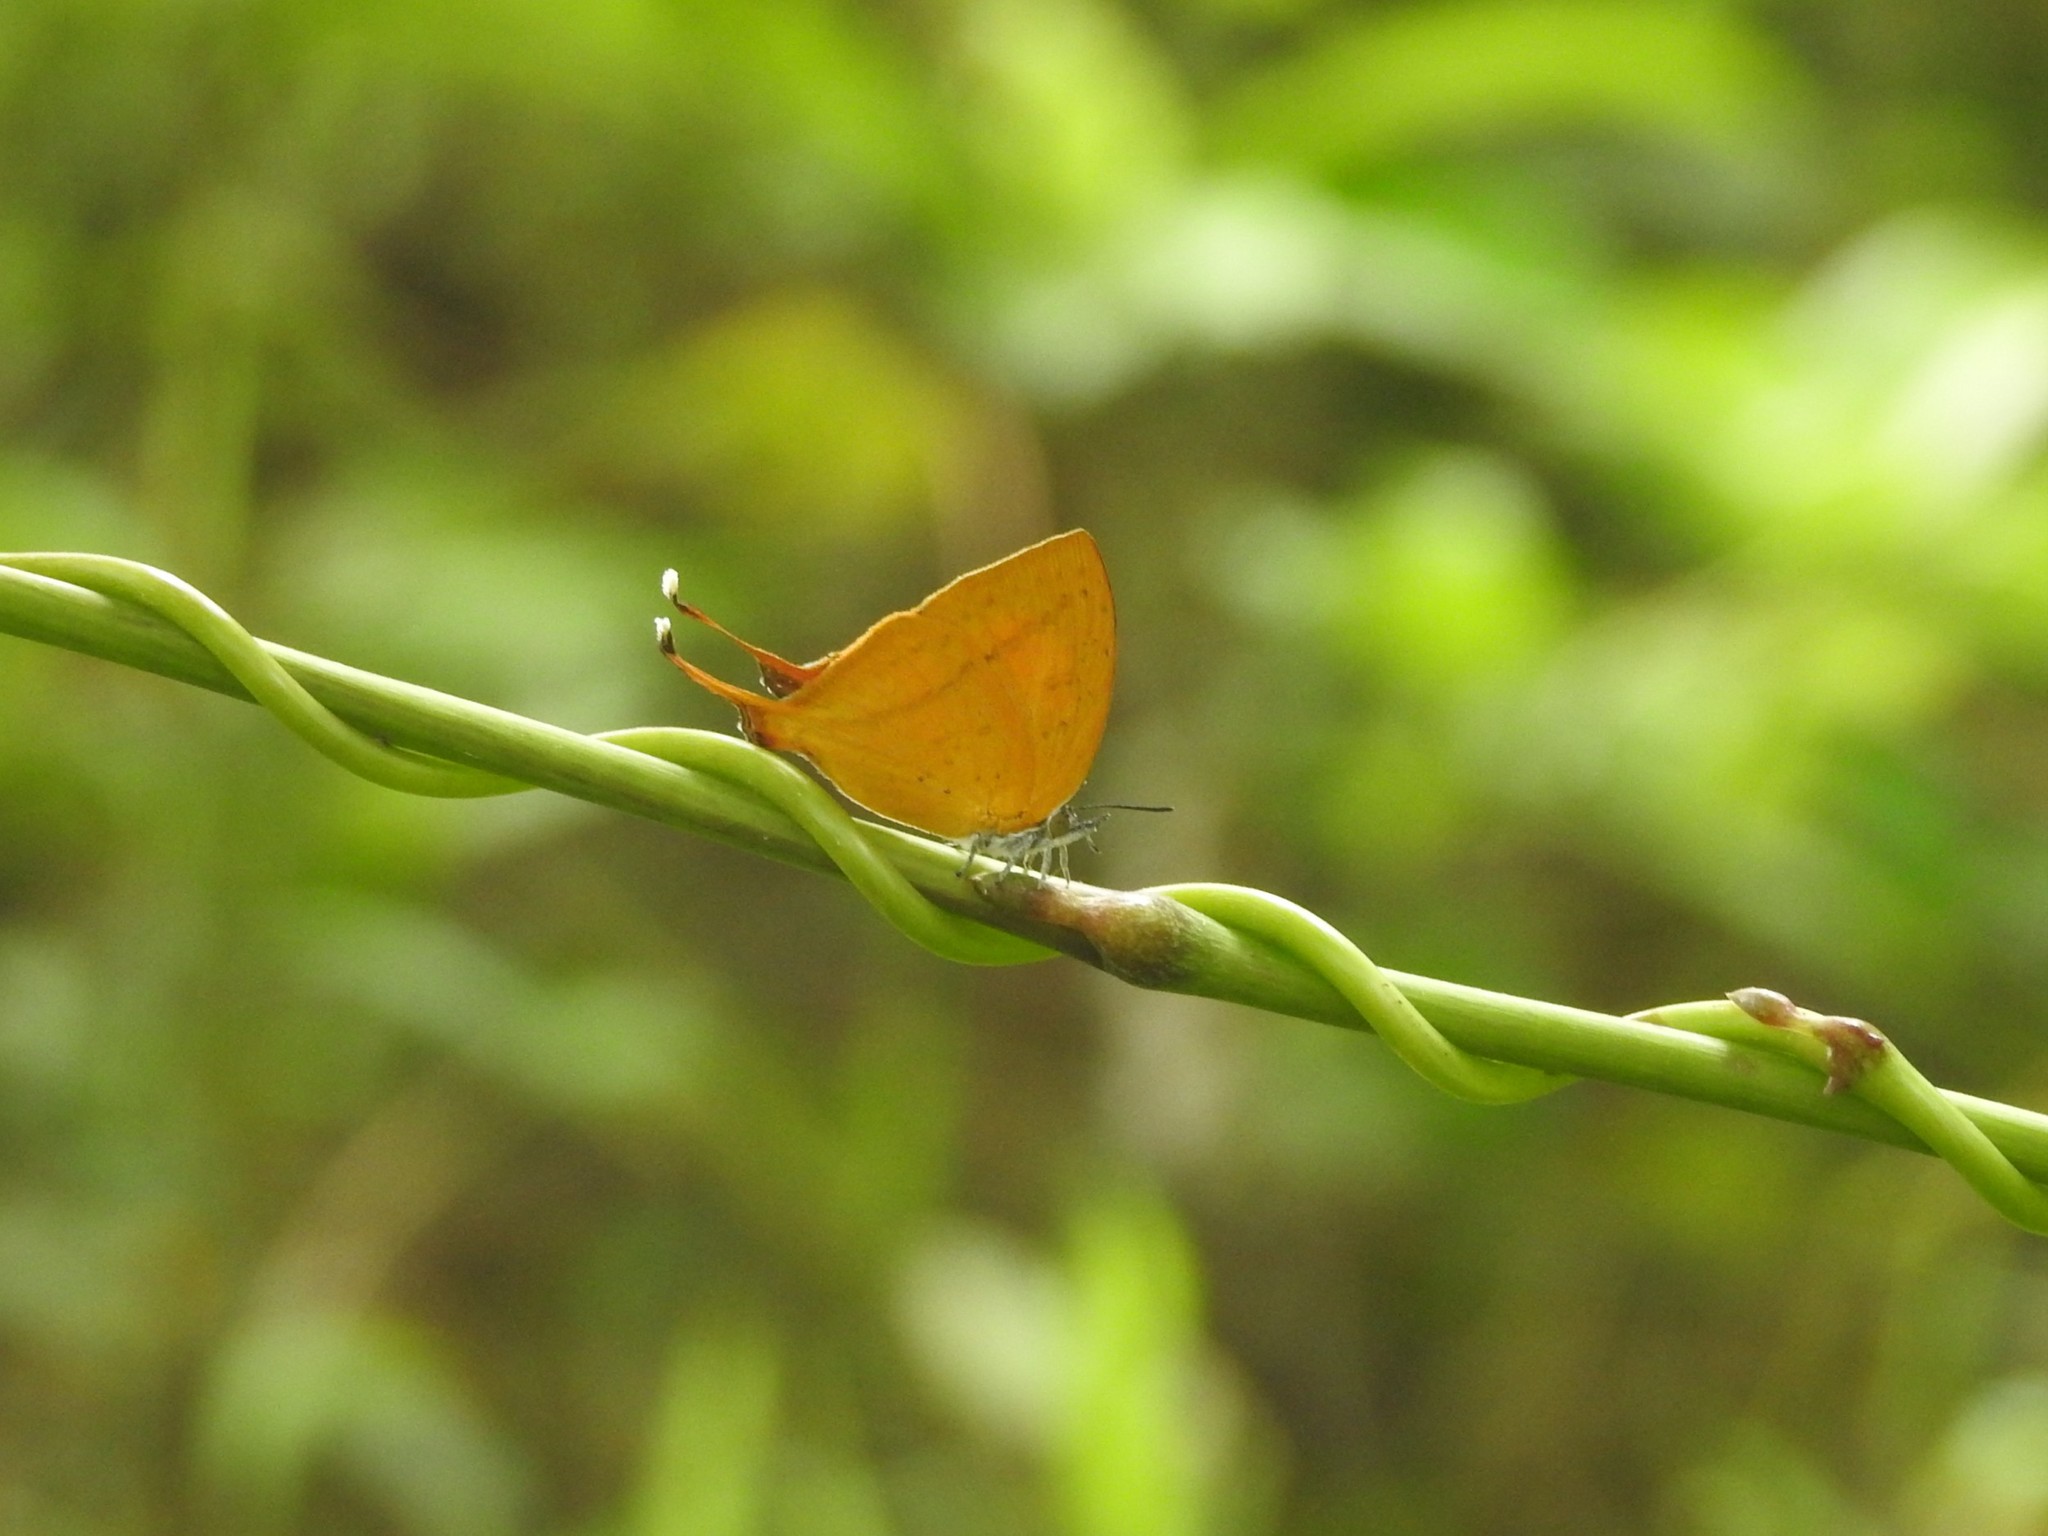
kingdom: Animalia
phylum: Arthropoda
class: Insecta
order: Lepidoptera
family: Lycaenidae
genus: Loxura
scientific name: Loxura atymnus
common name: Common yamfly
